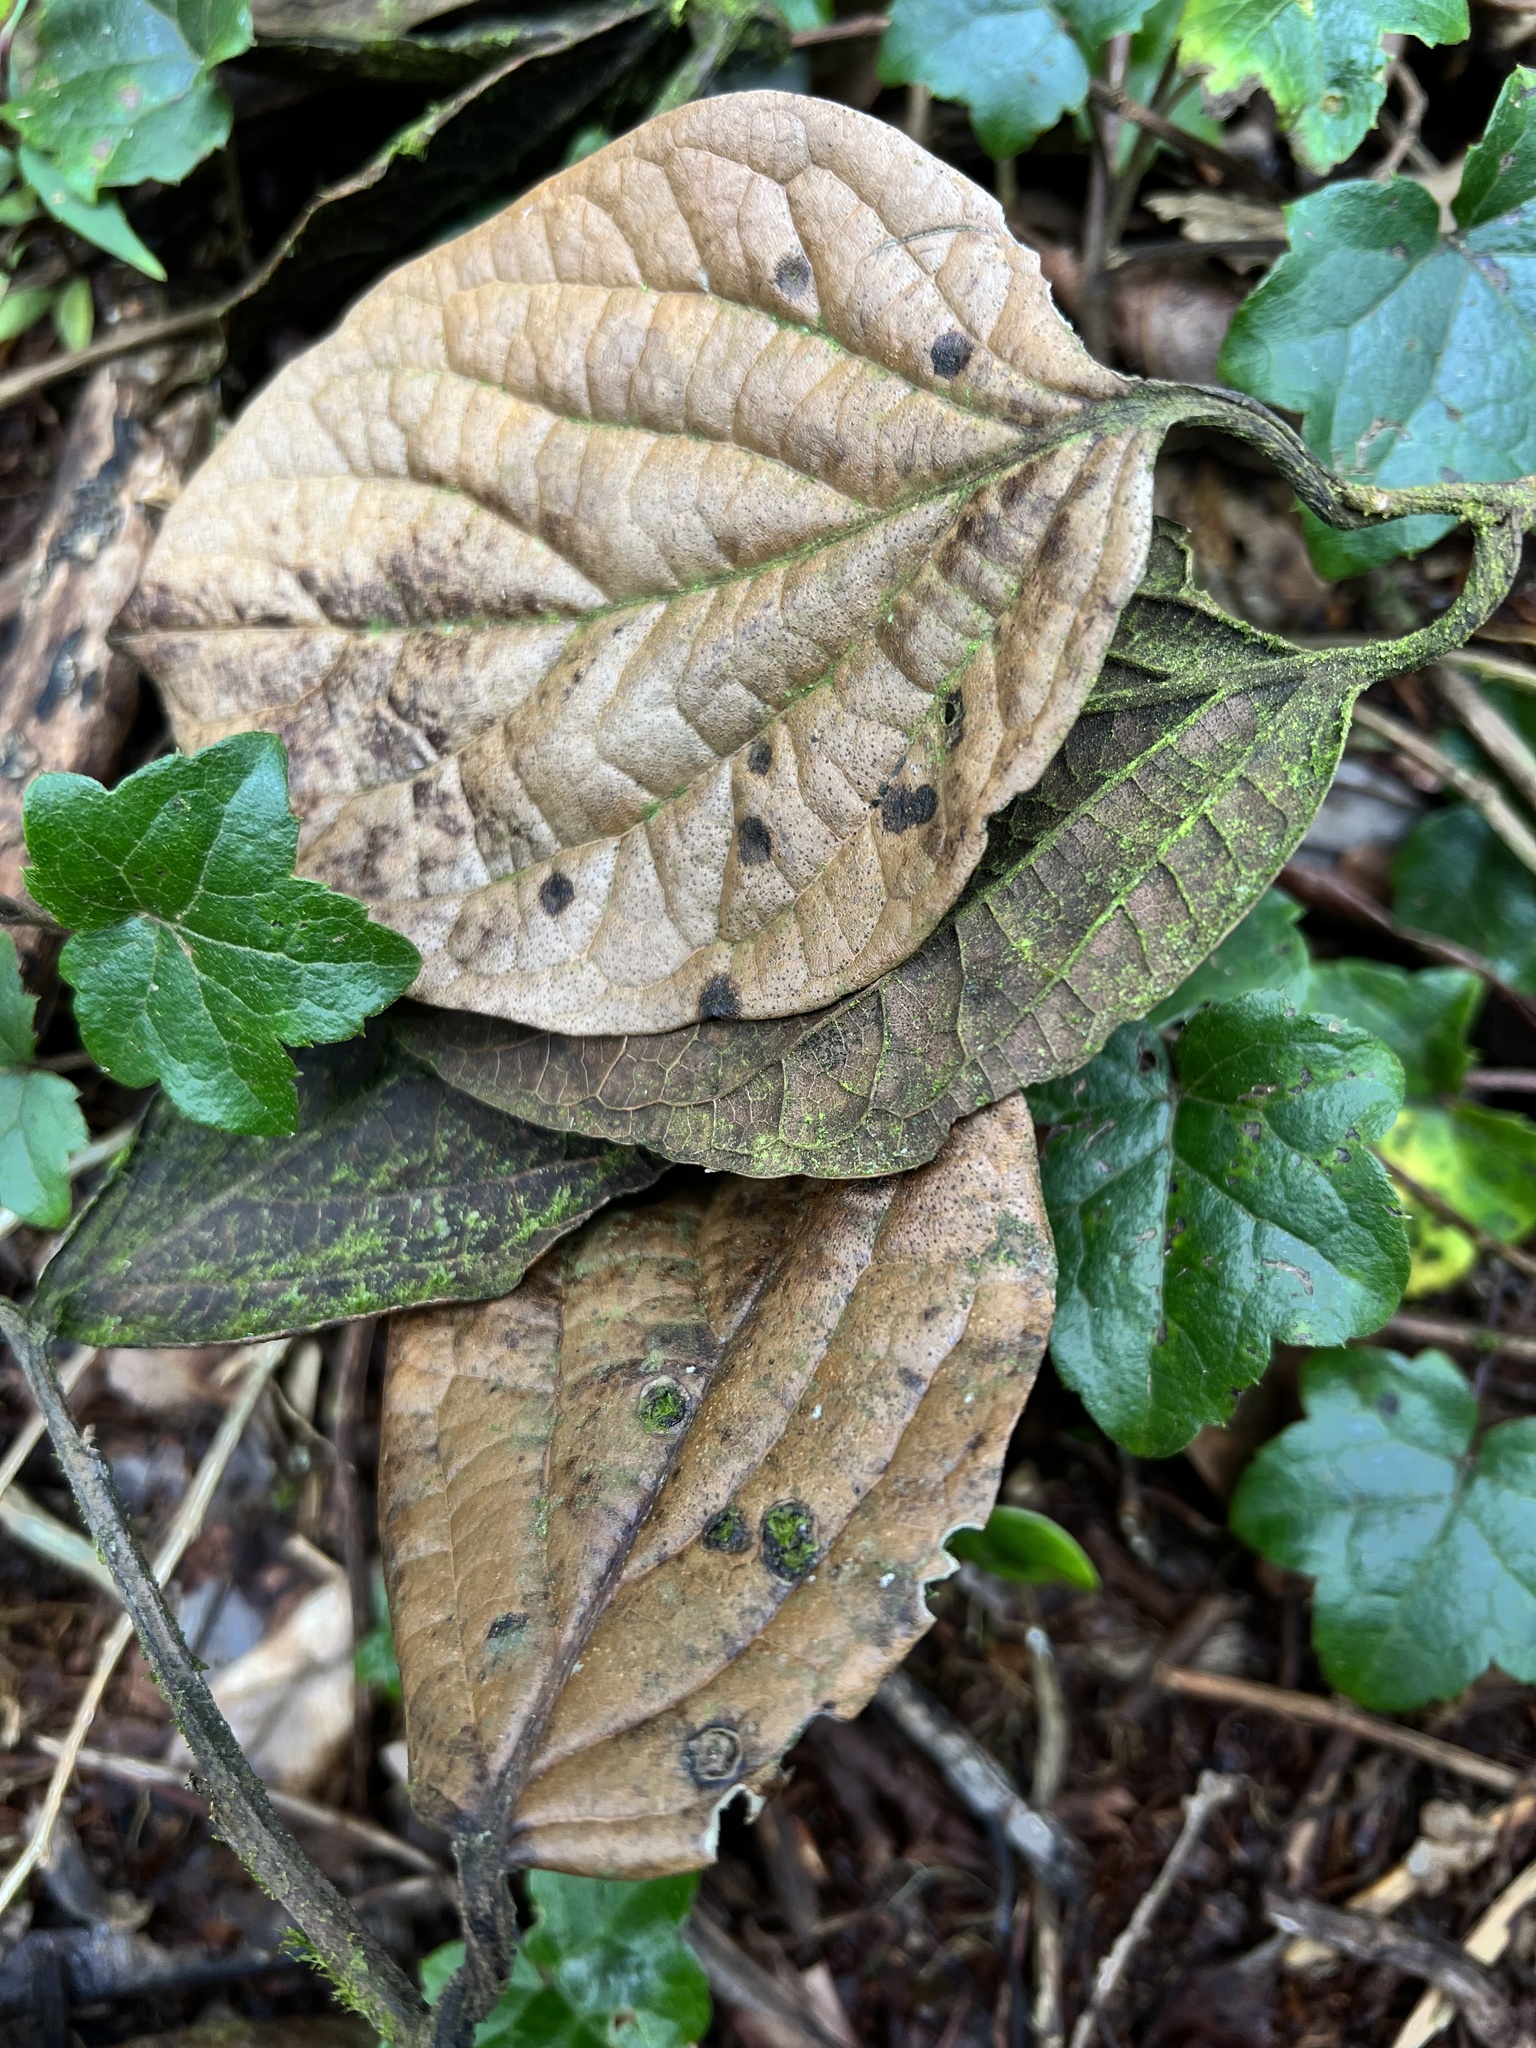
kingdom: Plantae
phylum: Tracheophyta
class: Magnoliopsida
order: Laurales
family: Lauraceae
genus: Ocotea
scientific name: Ocotea pedicellata
